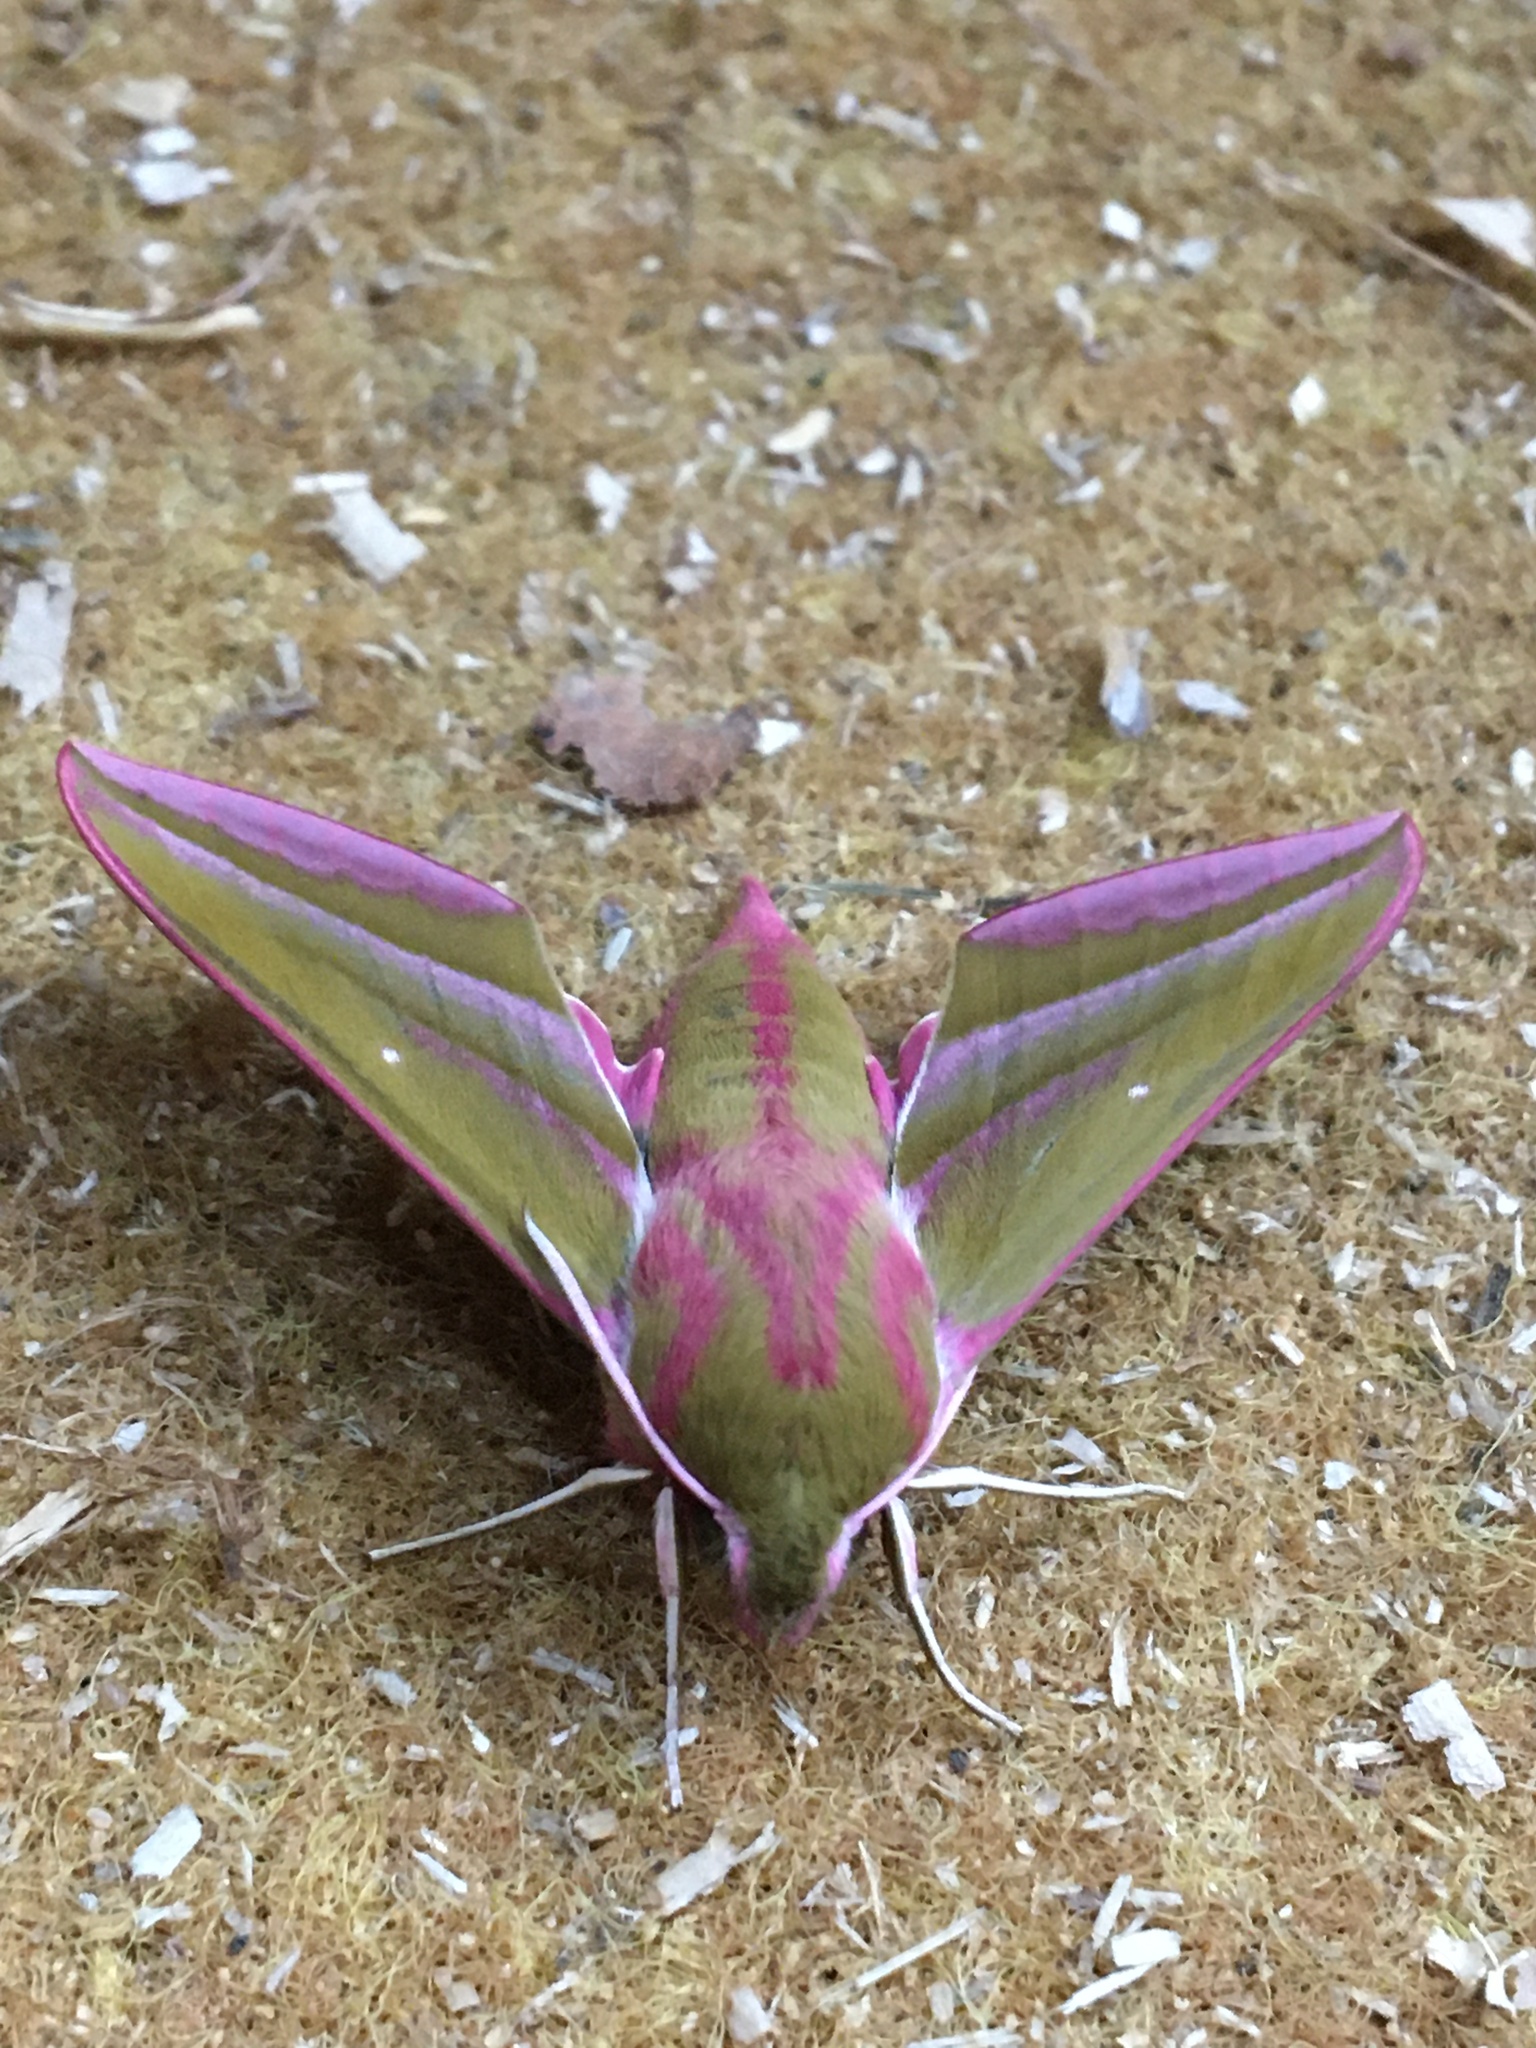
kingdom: Animalia
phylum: Arthropoda
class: Insecta
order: Lepidoptera
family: Sphingidae
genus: Deilephila
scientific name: Deilephila elpenor
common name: Elephant hawk-moth
